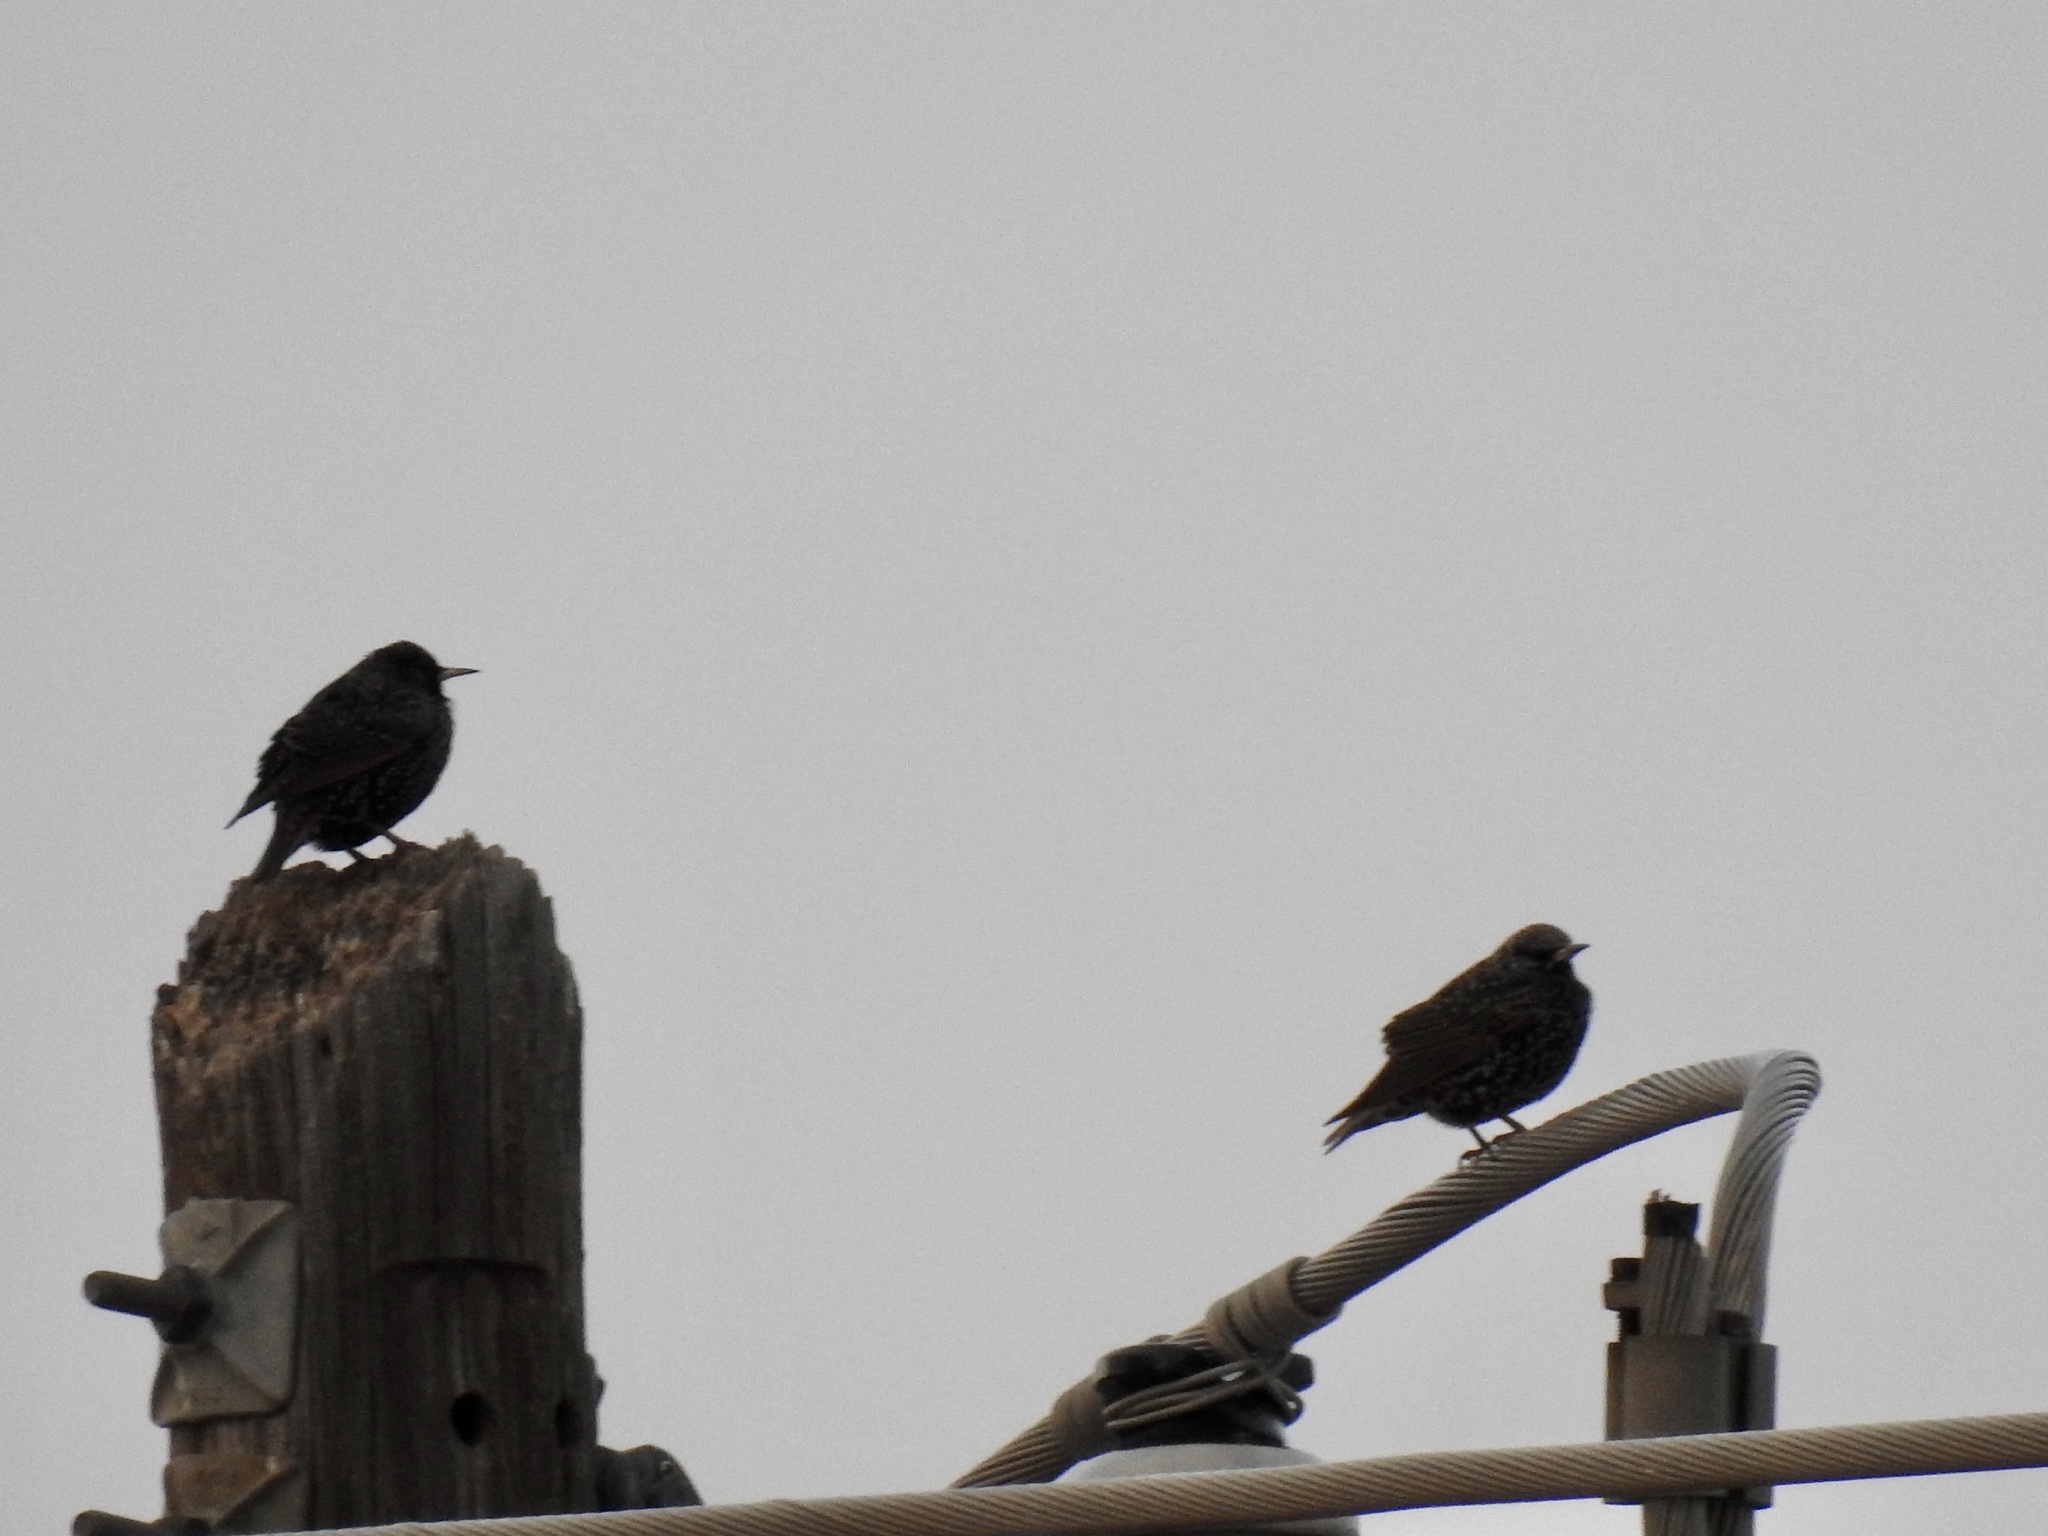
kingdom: Animalia
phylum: Chordata
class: Aves
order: Passeriformes
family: Sturnidae
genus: Sturnus
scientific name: Sturnus vulgaris
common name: Common starling
